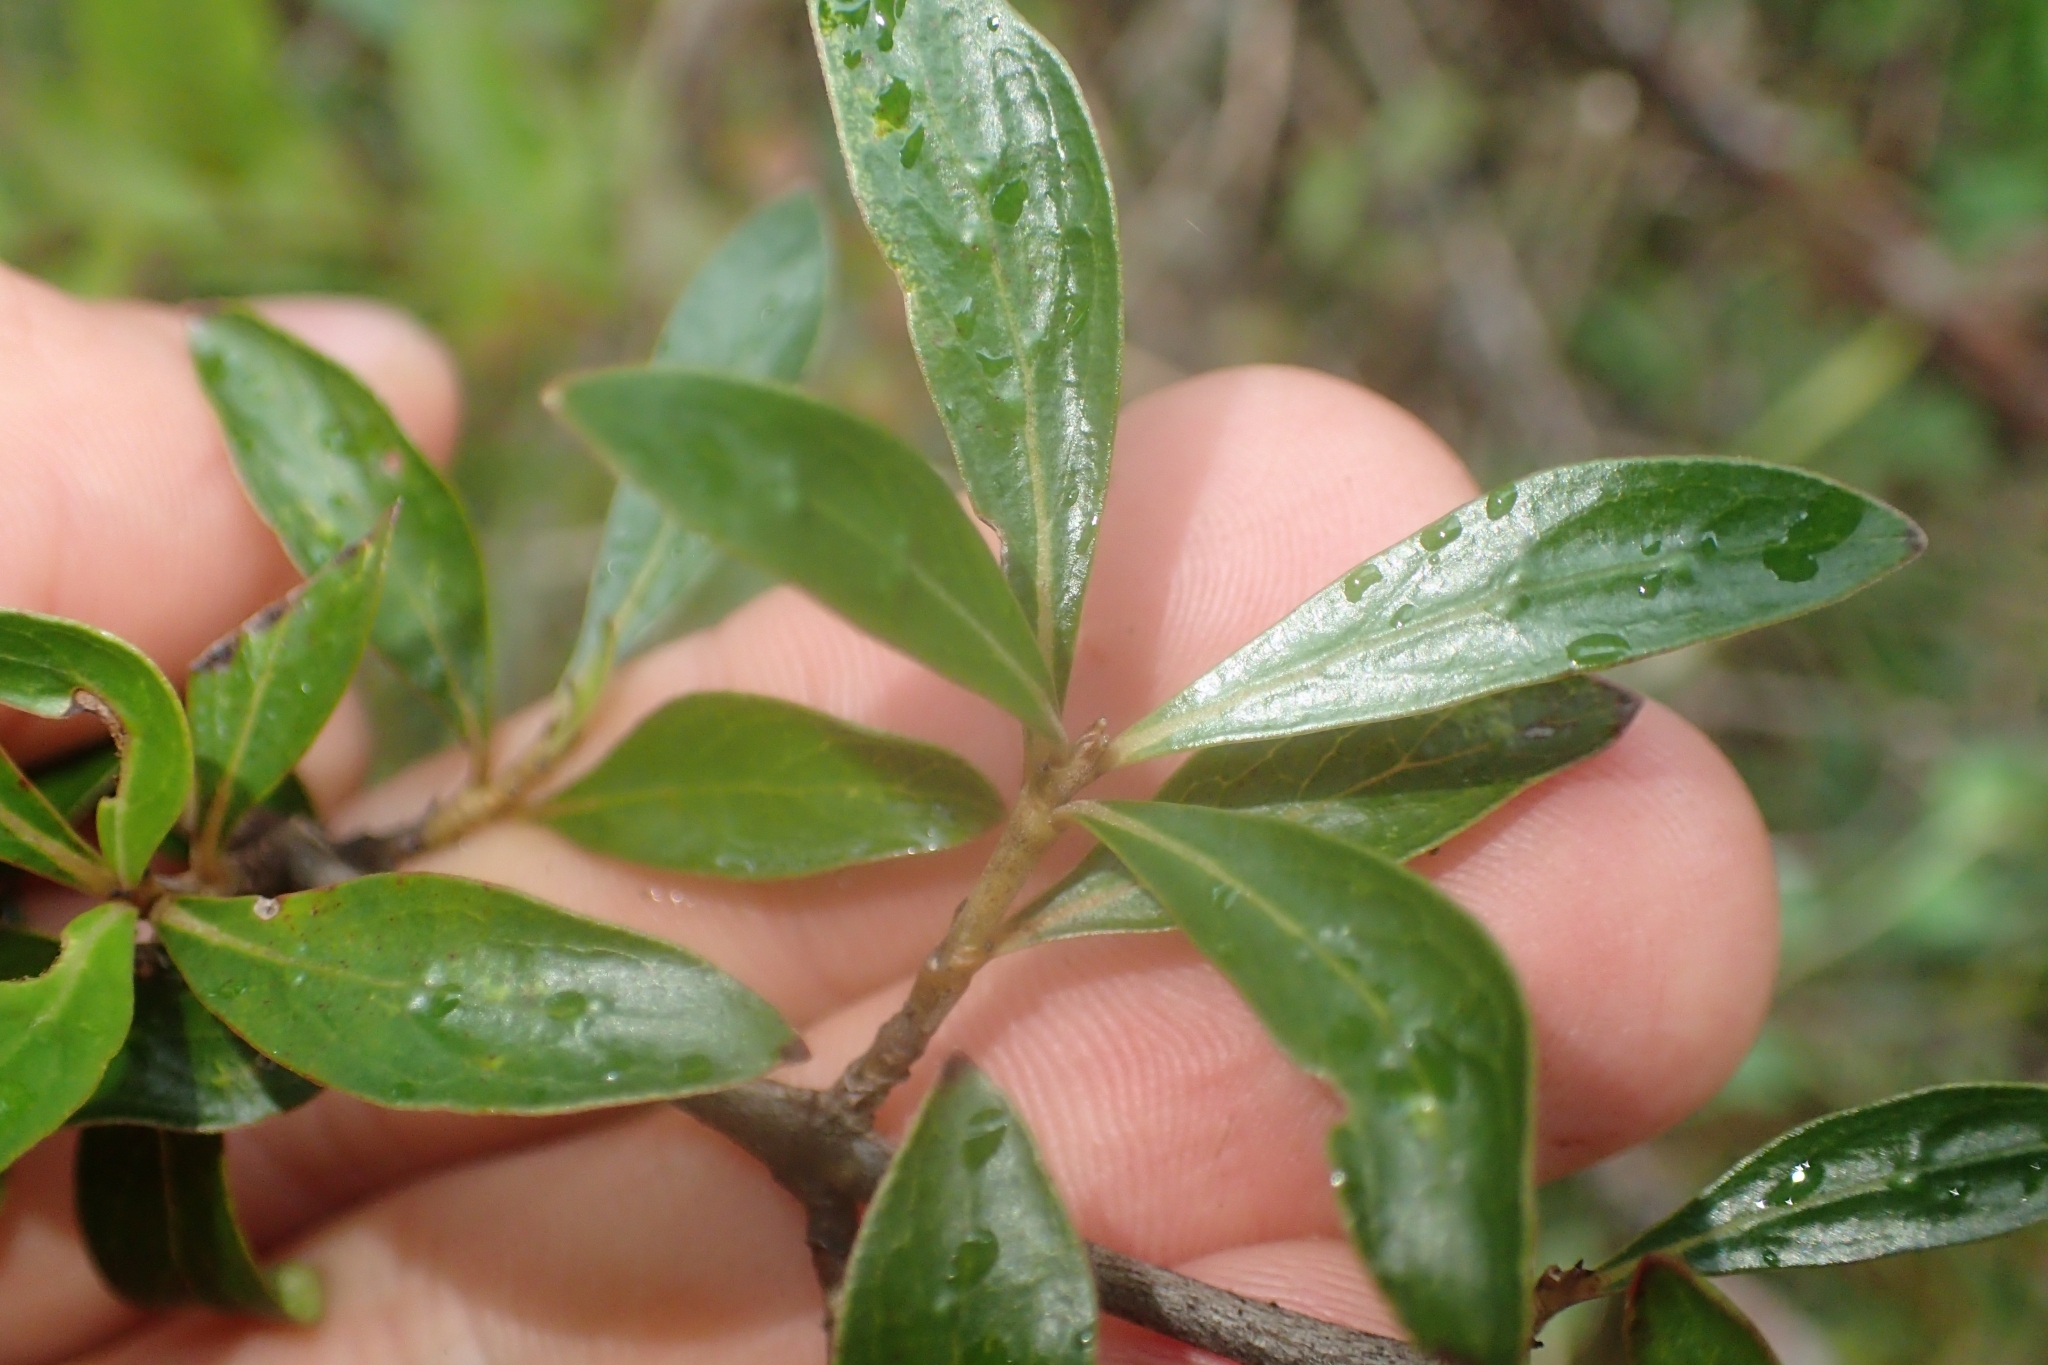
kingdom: Plantae
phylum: Tracheophyta
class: Magnoliopsida
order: Gentianales
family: Rubiaceae
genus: Coprosma
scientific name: Coprosma cunninghamii
